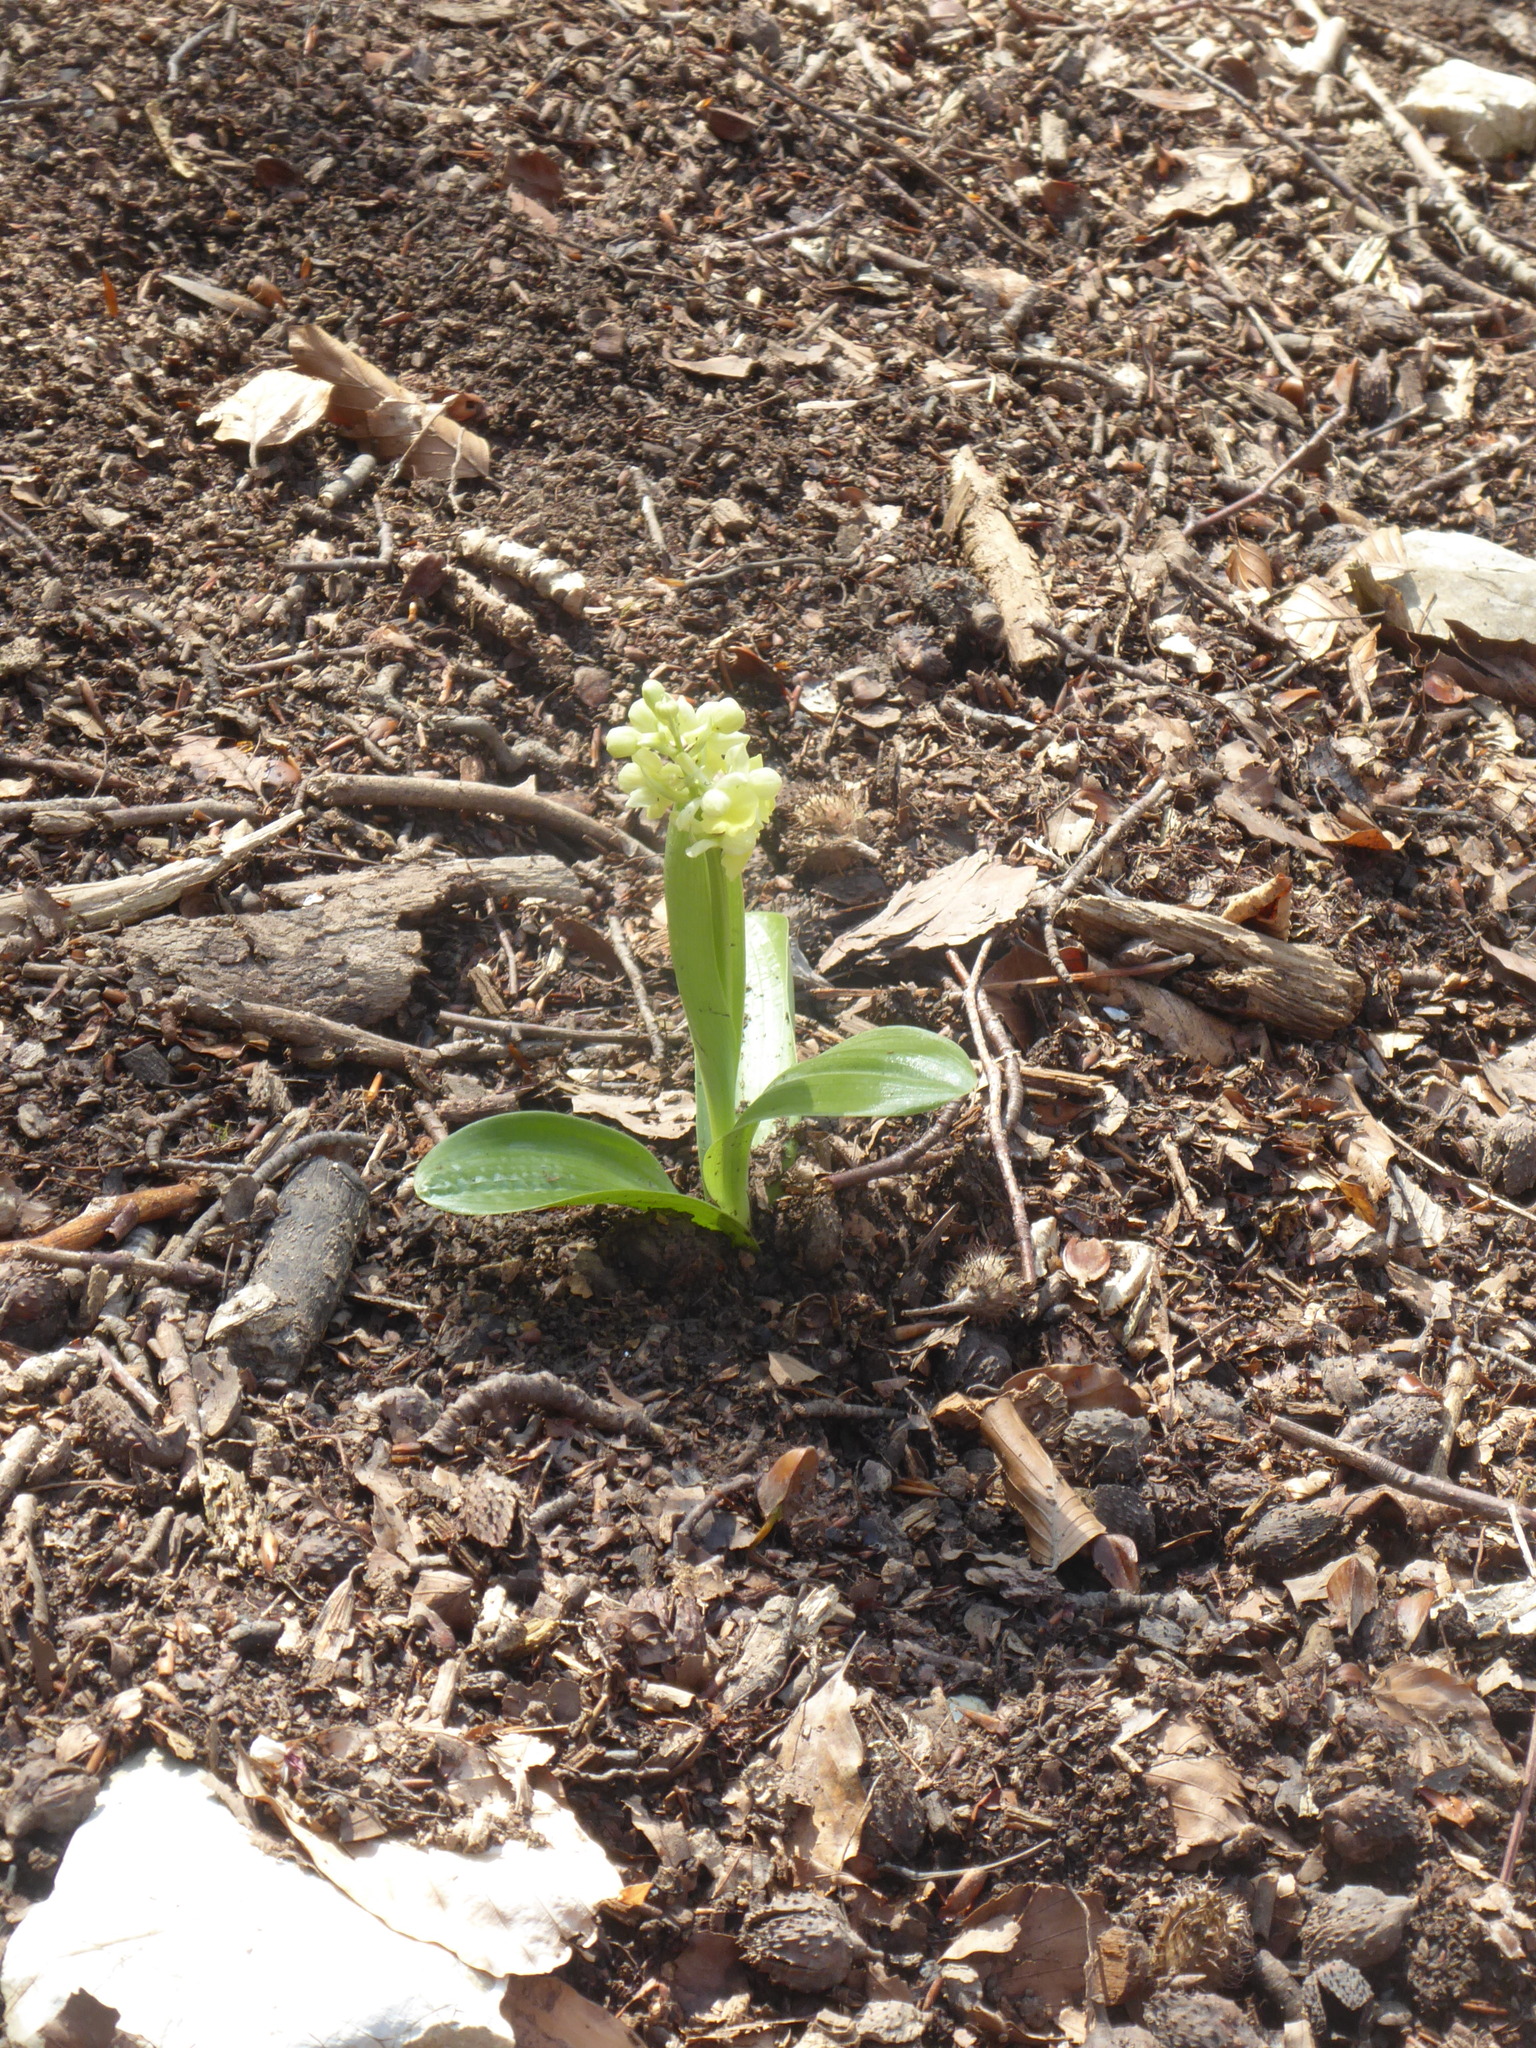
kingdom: Plantae
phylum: Tracheophyta
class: Liliopsida
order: Asparagales
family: Orchidaceae
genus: Orchis
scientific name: Orchis pallens
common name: Pale-flowered orchid
